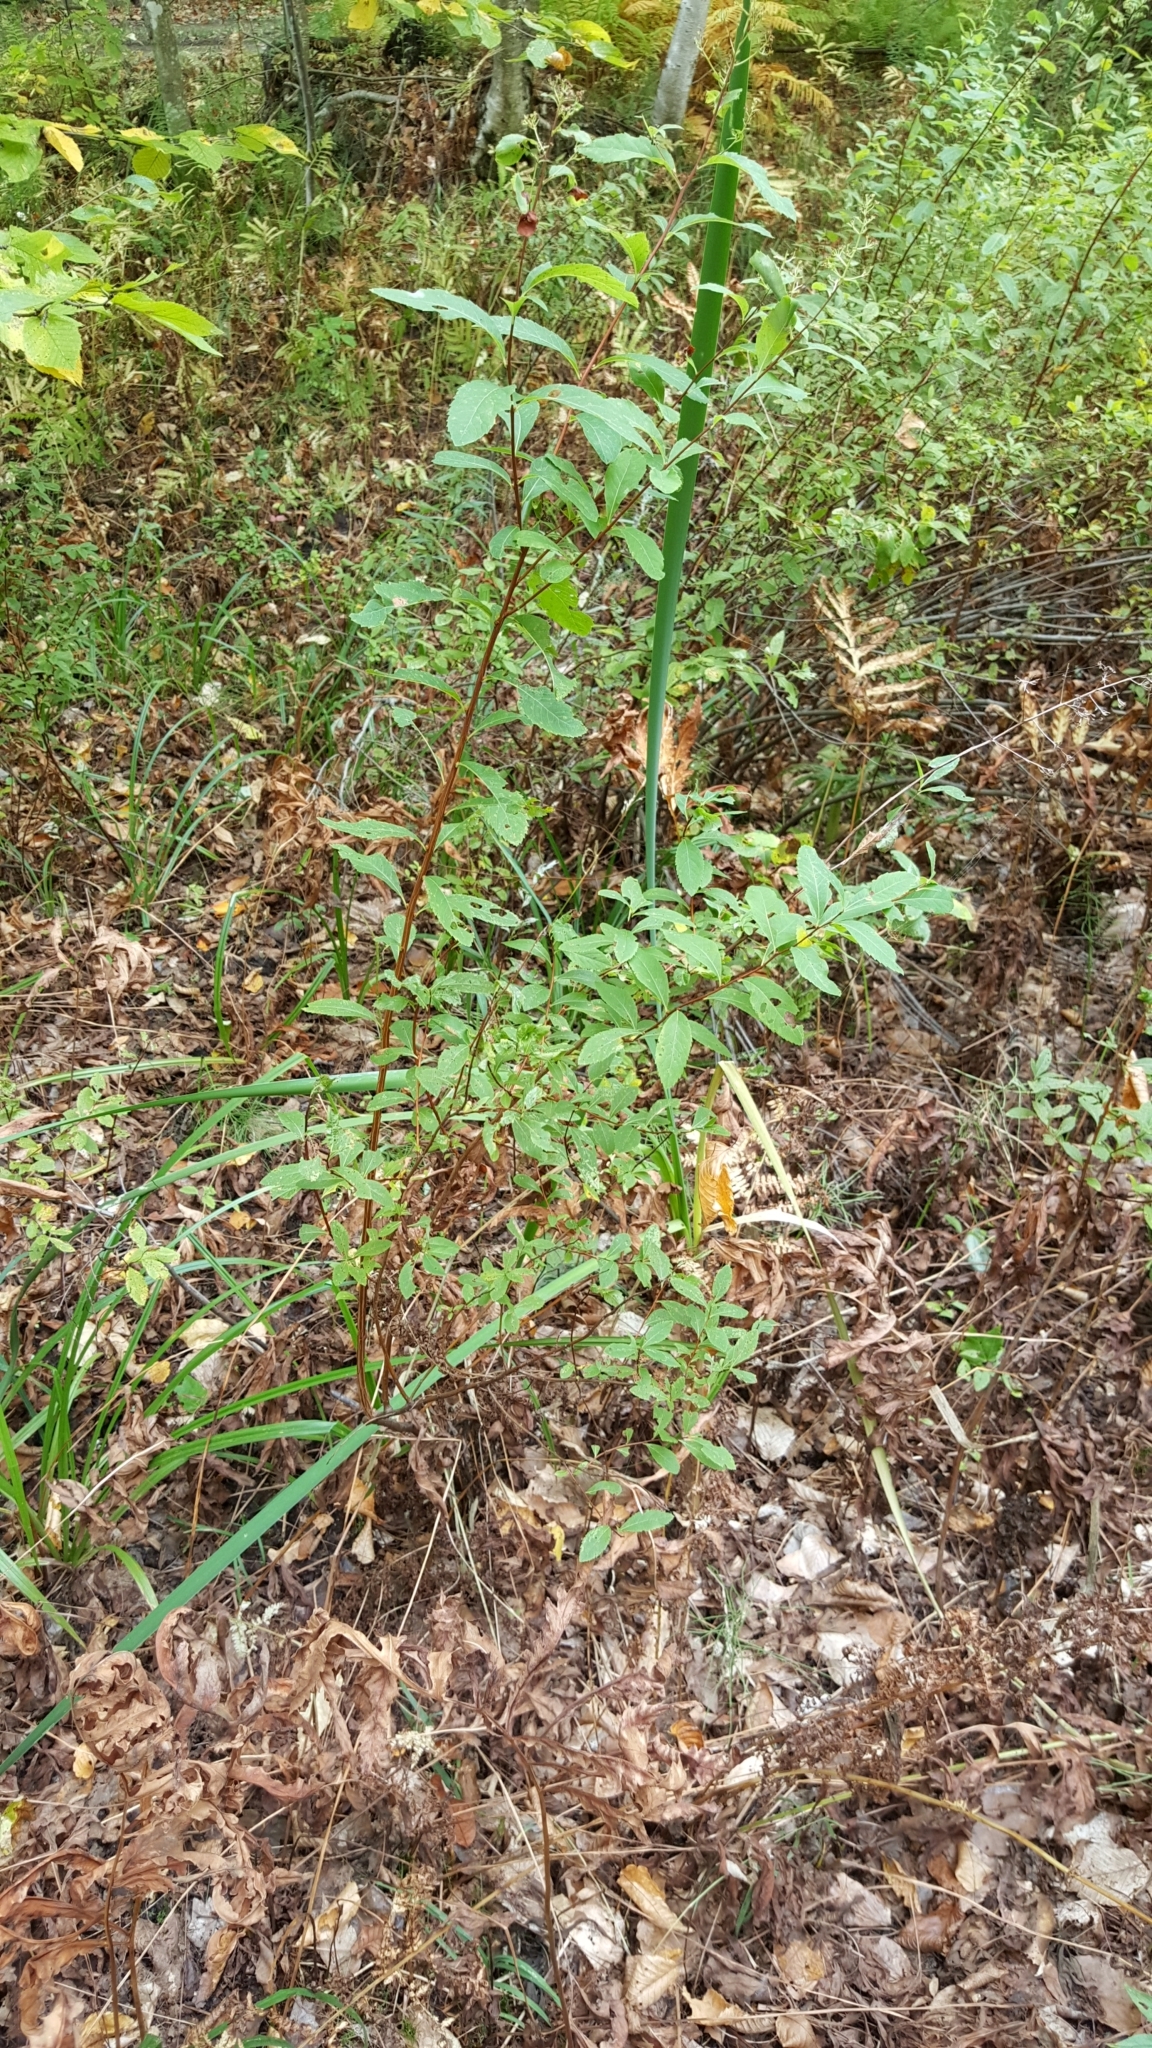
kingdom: Plantae
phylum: Tracheophyta
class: Magnoliopsida
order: Rosales
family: Rosaceae
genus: Spiraea
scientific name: Spiraea alba
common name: Pale bridewort
